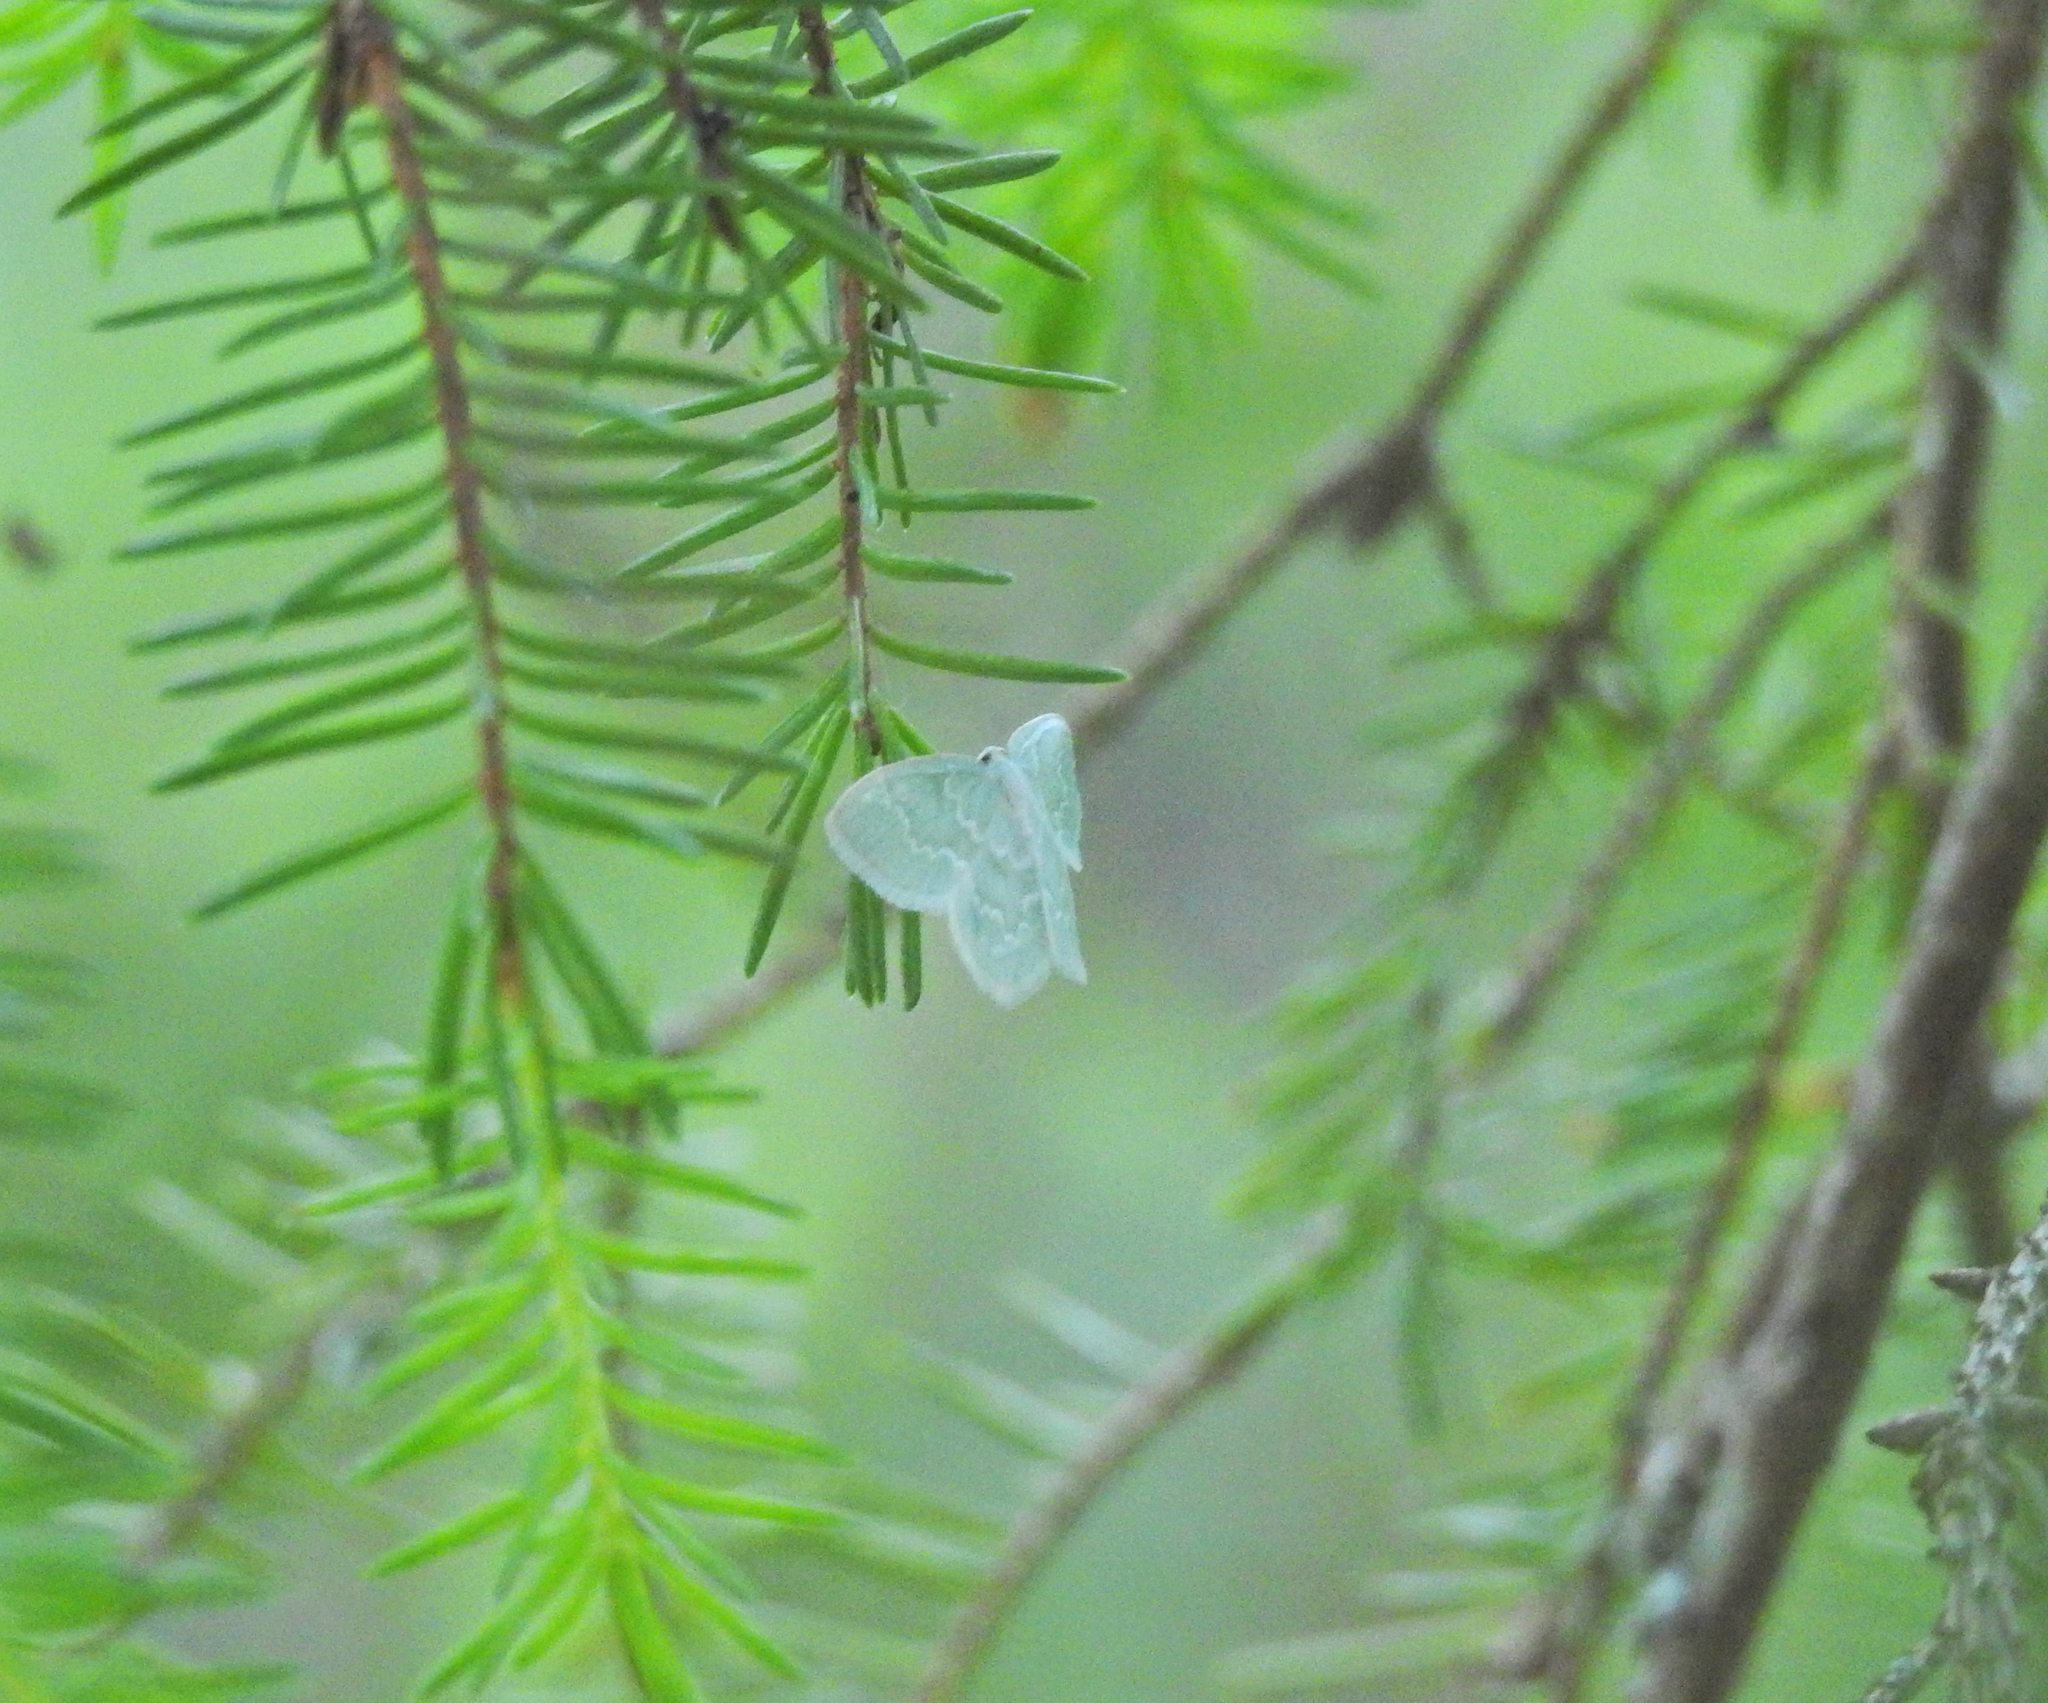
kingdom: Animalia
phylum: Arthropoda
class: Insecta
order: Lepidoptera
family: Geometridae
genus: Jodis
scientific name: Jodis putata
